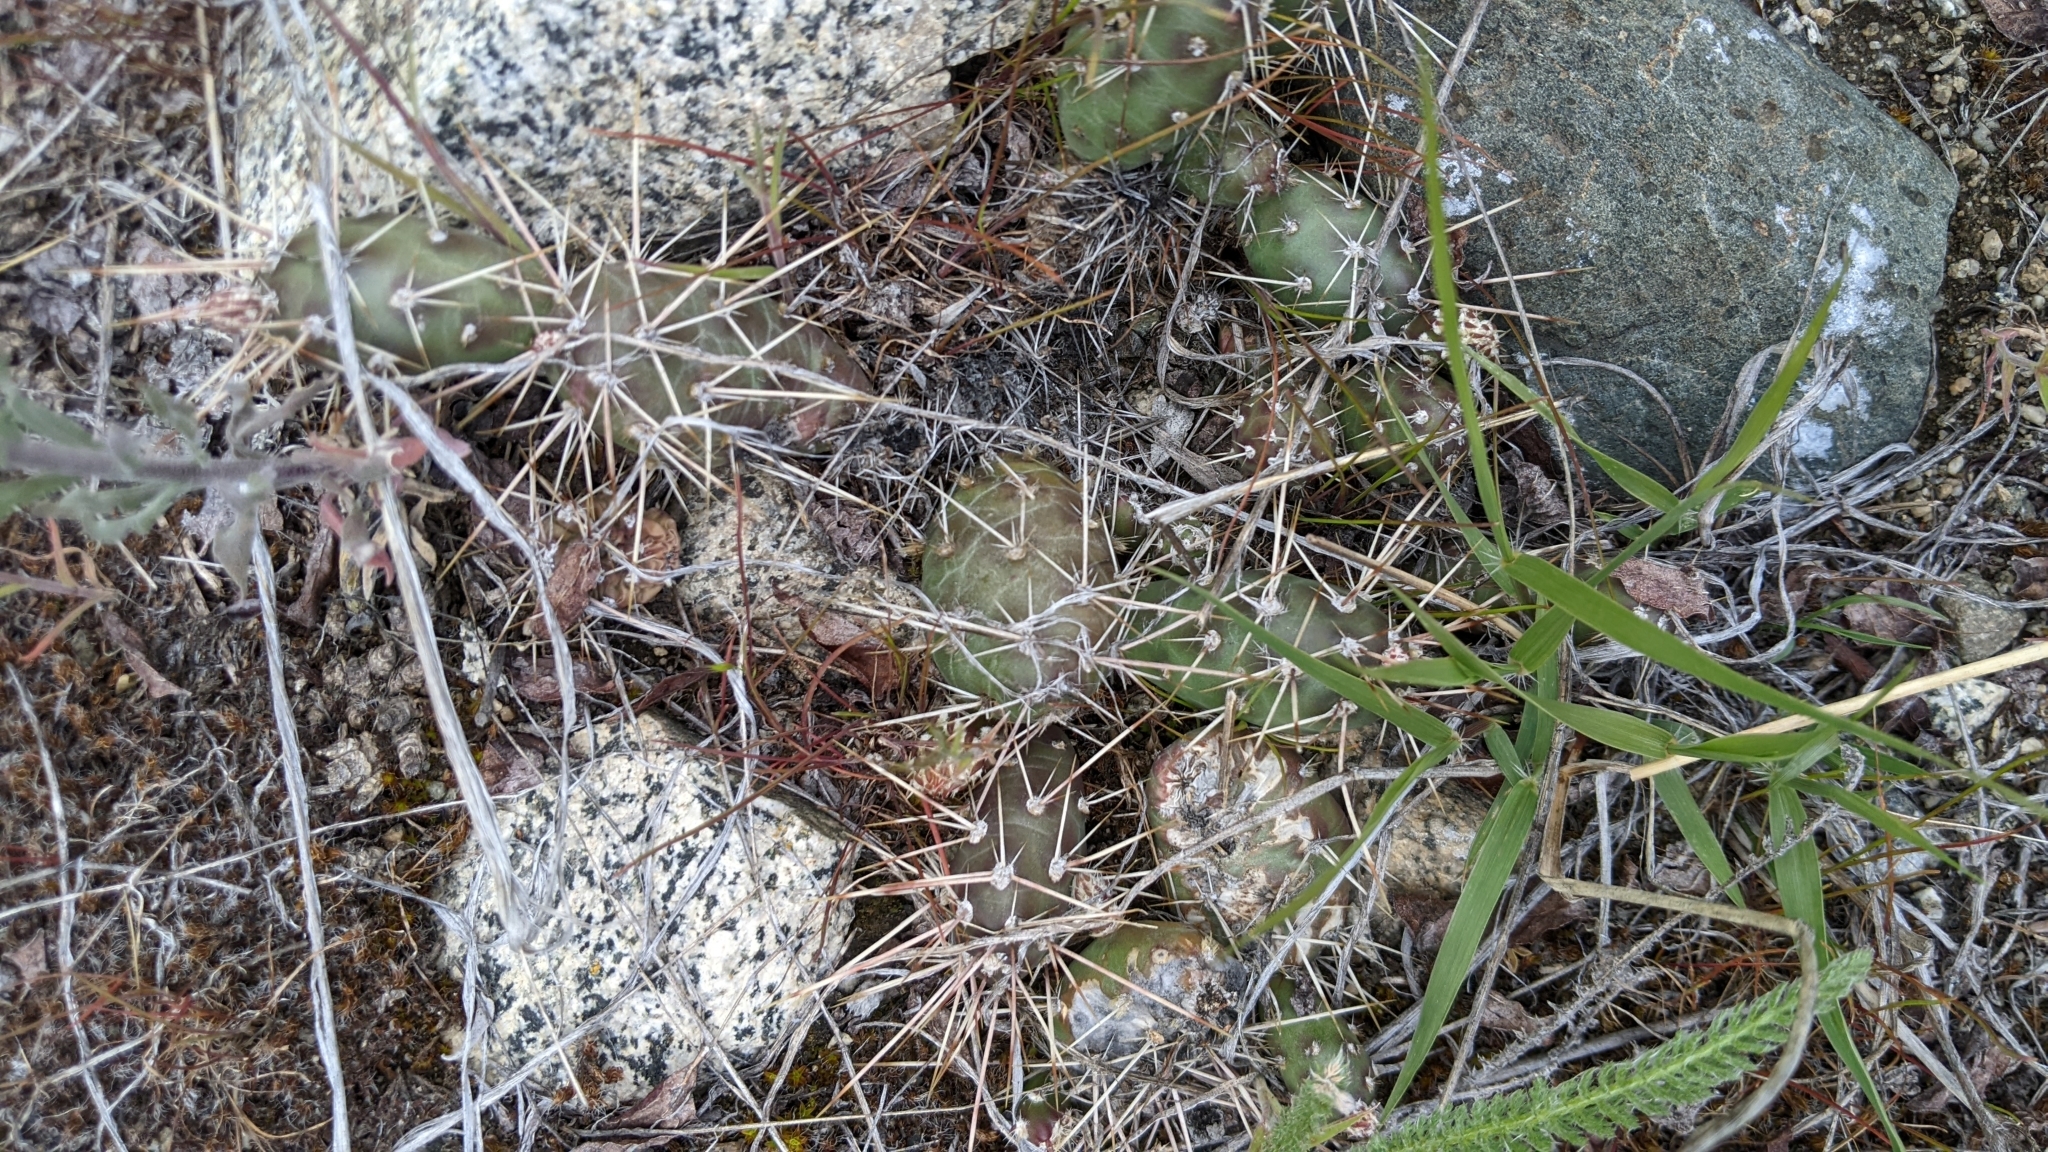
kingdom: Plantae
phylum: Tracheophyta
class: Magnoliopsida
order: Caryophyllales
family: Cactaceae
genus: Opuntia
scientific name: Opuntia fragilis
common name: Brittle cactus
